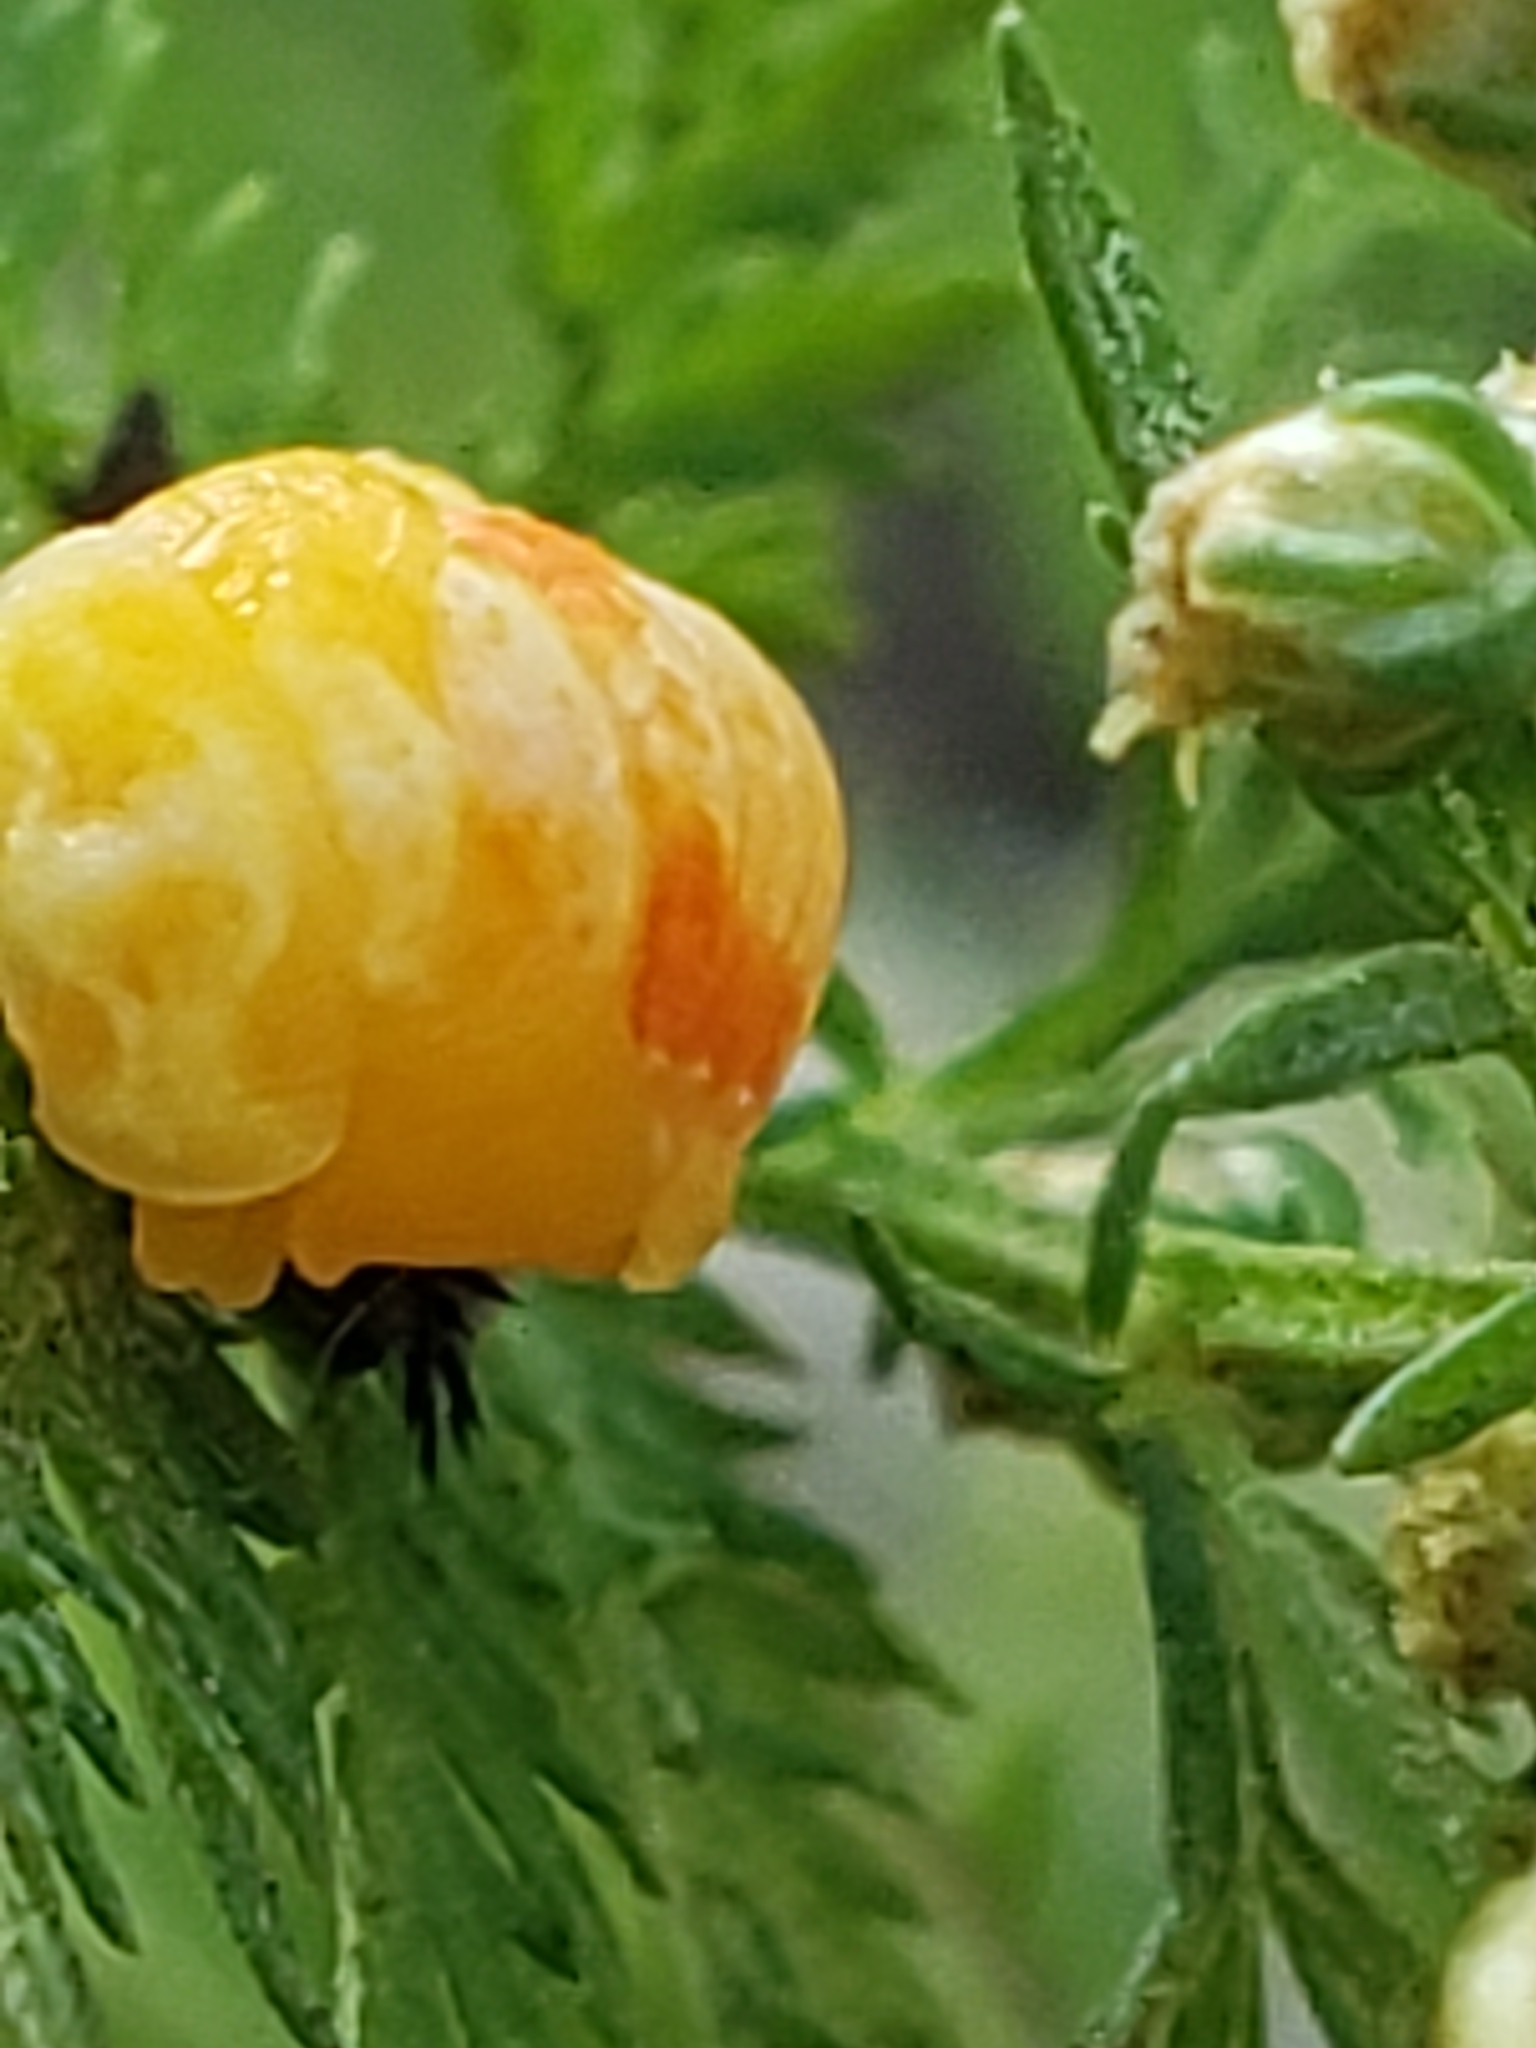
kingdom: Animalia
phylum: Arthropoda
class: Insecta
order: Coleoptera
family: Coccinellidae
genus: Harmonia
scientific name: Harmonia axyridis
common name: Harlequin ladybird
